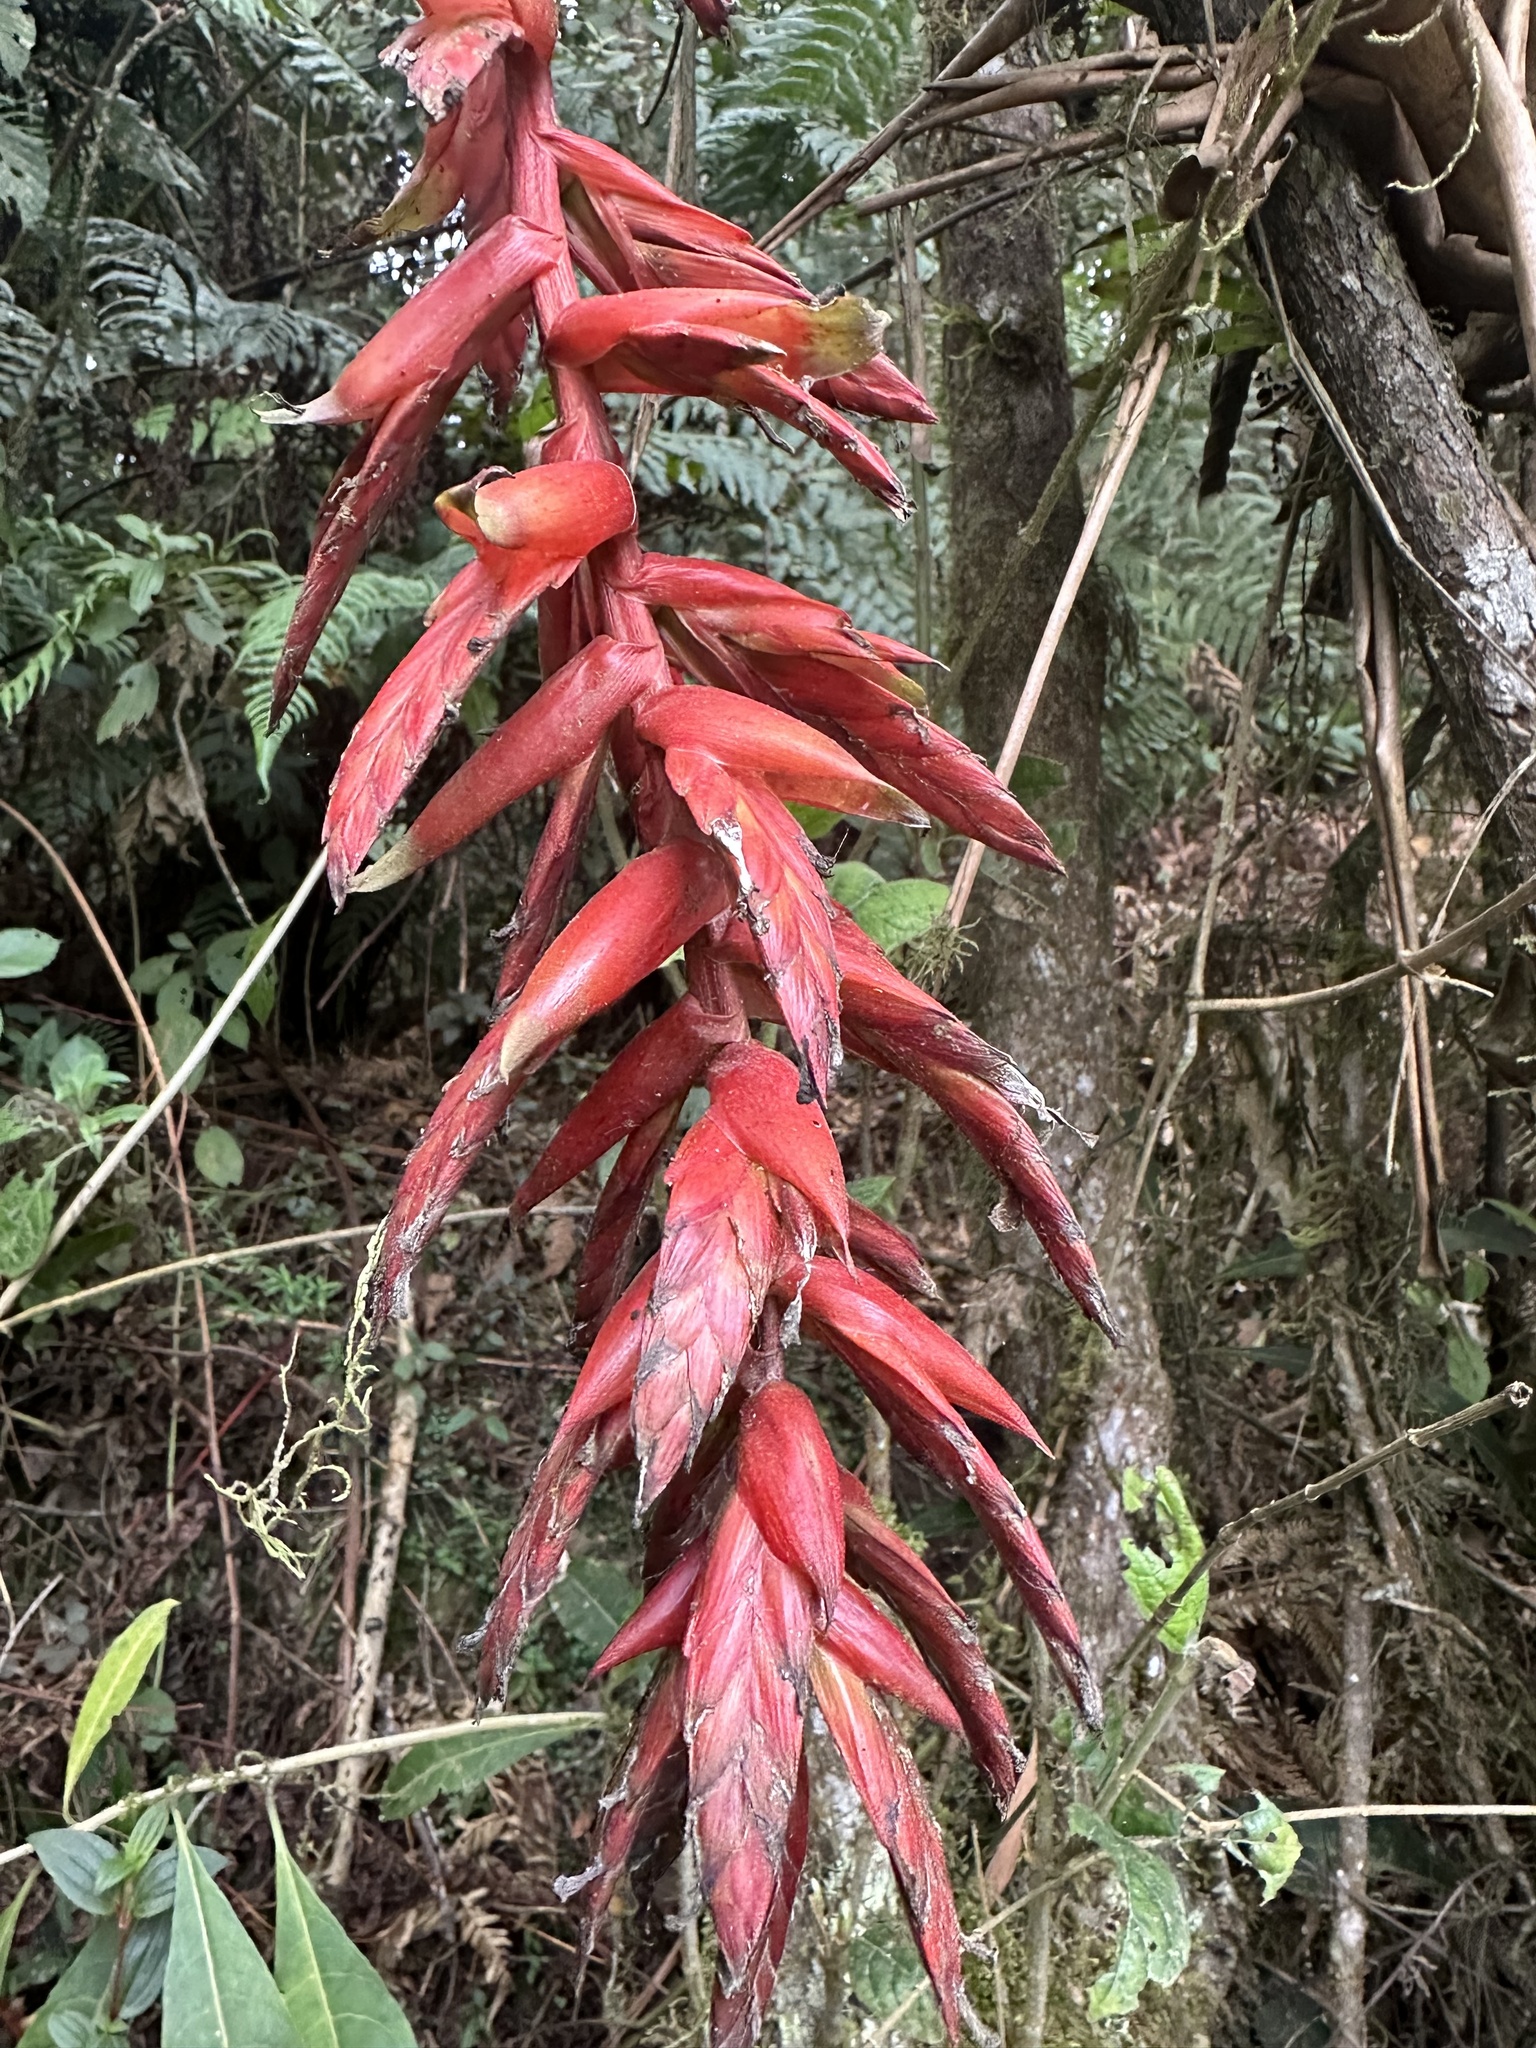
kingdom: Plantae
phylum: Tracheophyta
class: Liliopsida
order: Poales
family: Bromeliaceae
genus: Tillandsia
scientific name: Tillandsia compacta
